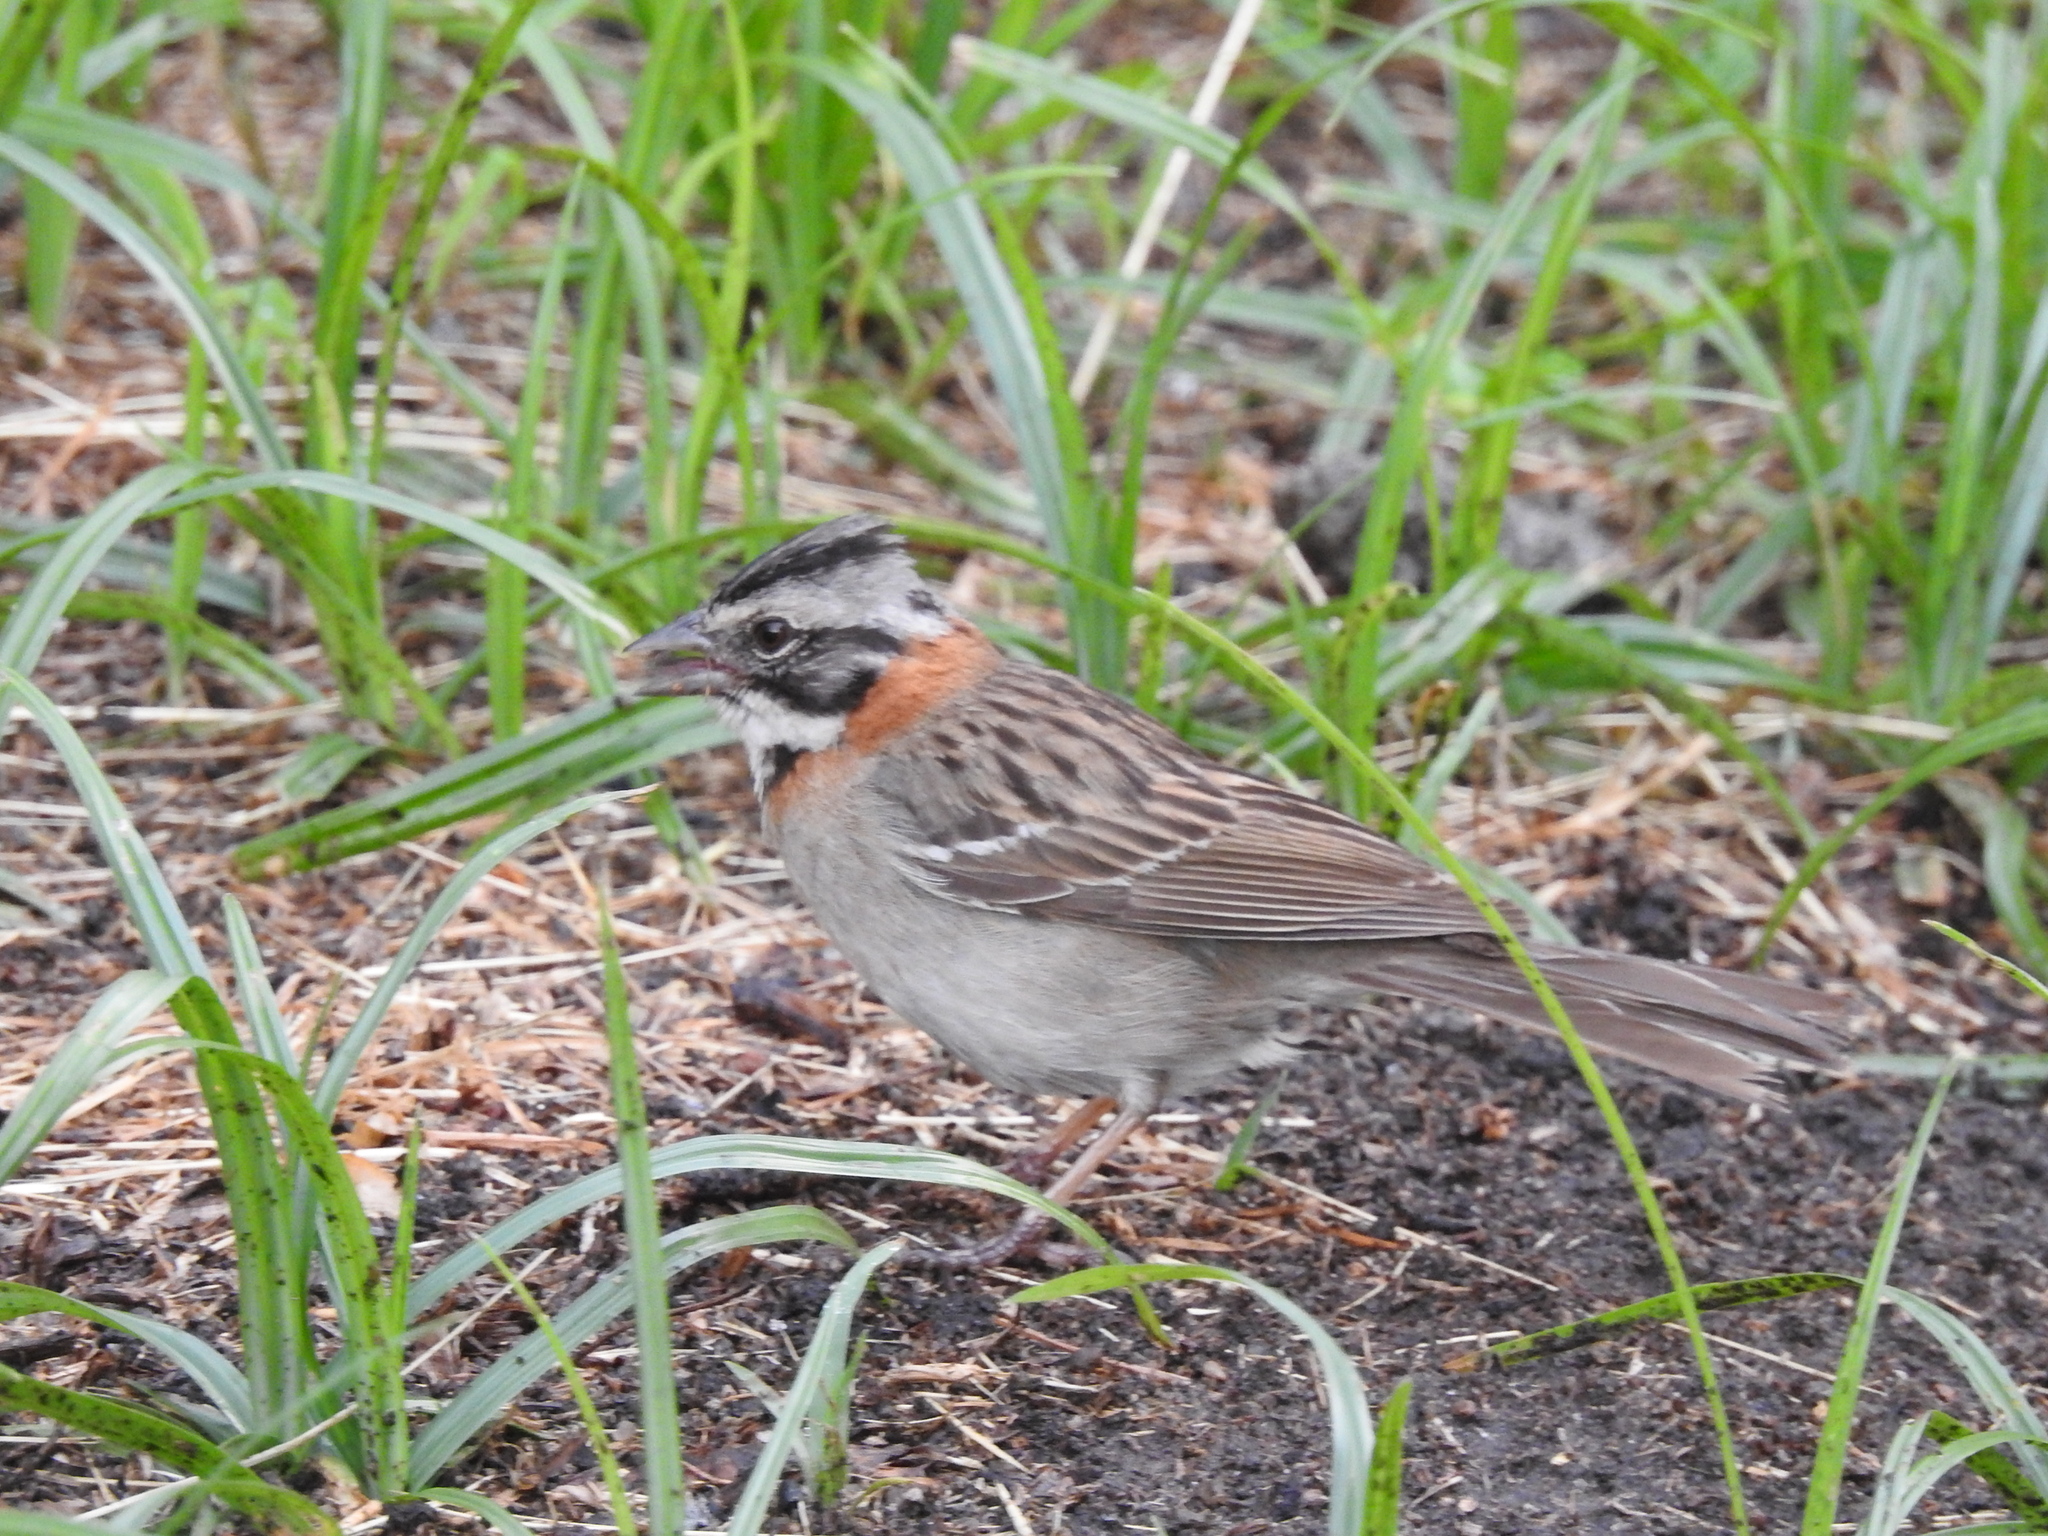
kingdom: Animalia
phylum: Chordata
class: Aves
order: Passeriformes
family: Passerellidae
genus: Zonotrichia
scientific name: Zonotrichia capensis
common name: Rufous-collared sparrow
